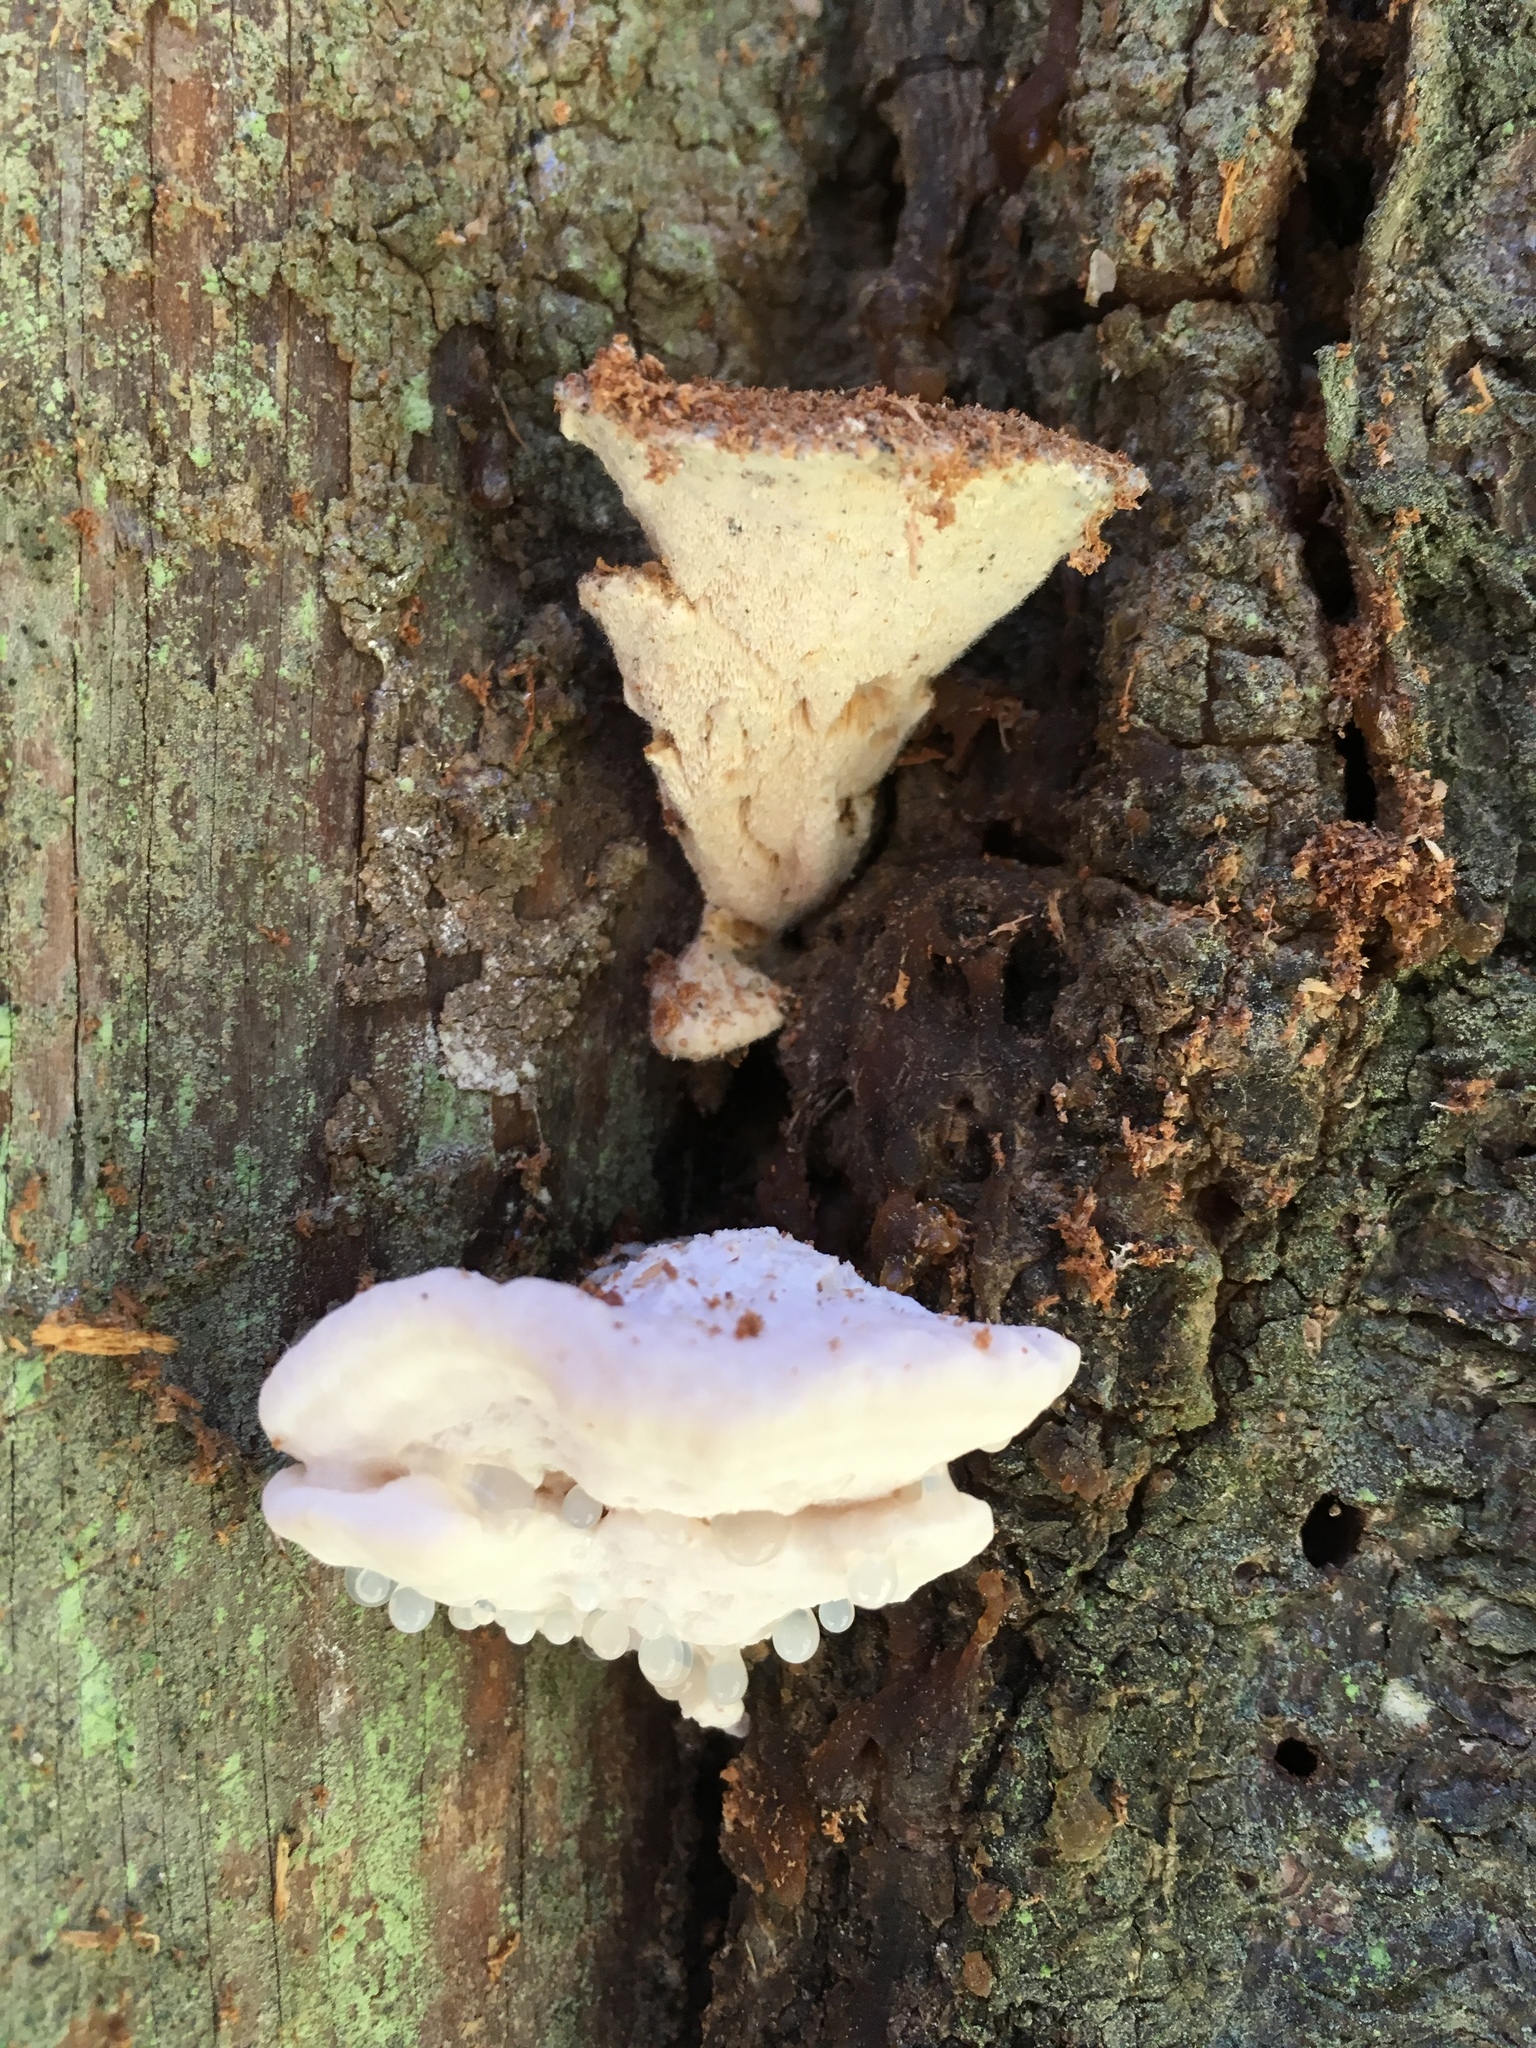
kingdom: Fungi
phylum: Basidiomycota
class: Agaricomycetes
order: Polyporales
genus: Amaropostia
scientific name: Amaropostia stiptica
